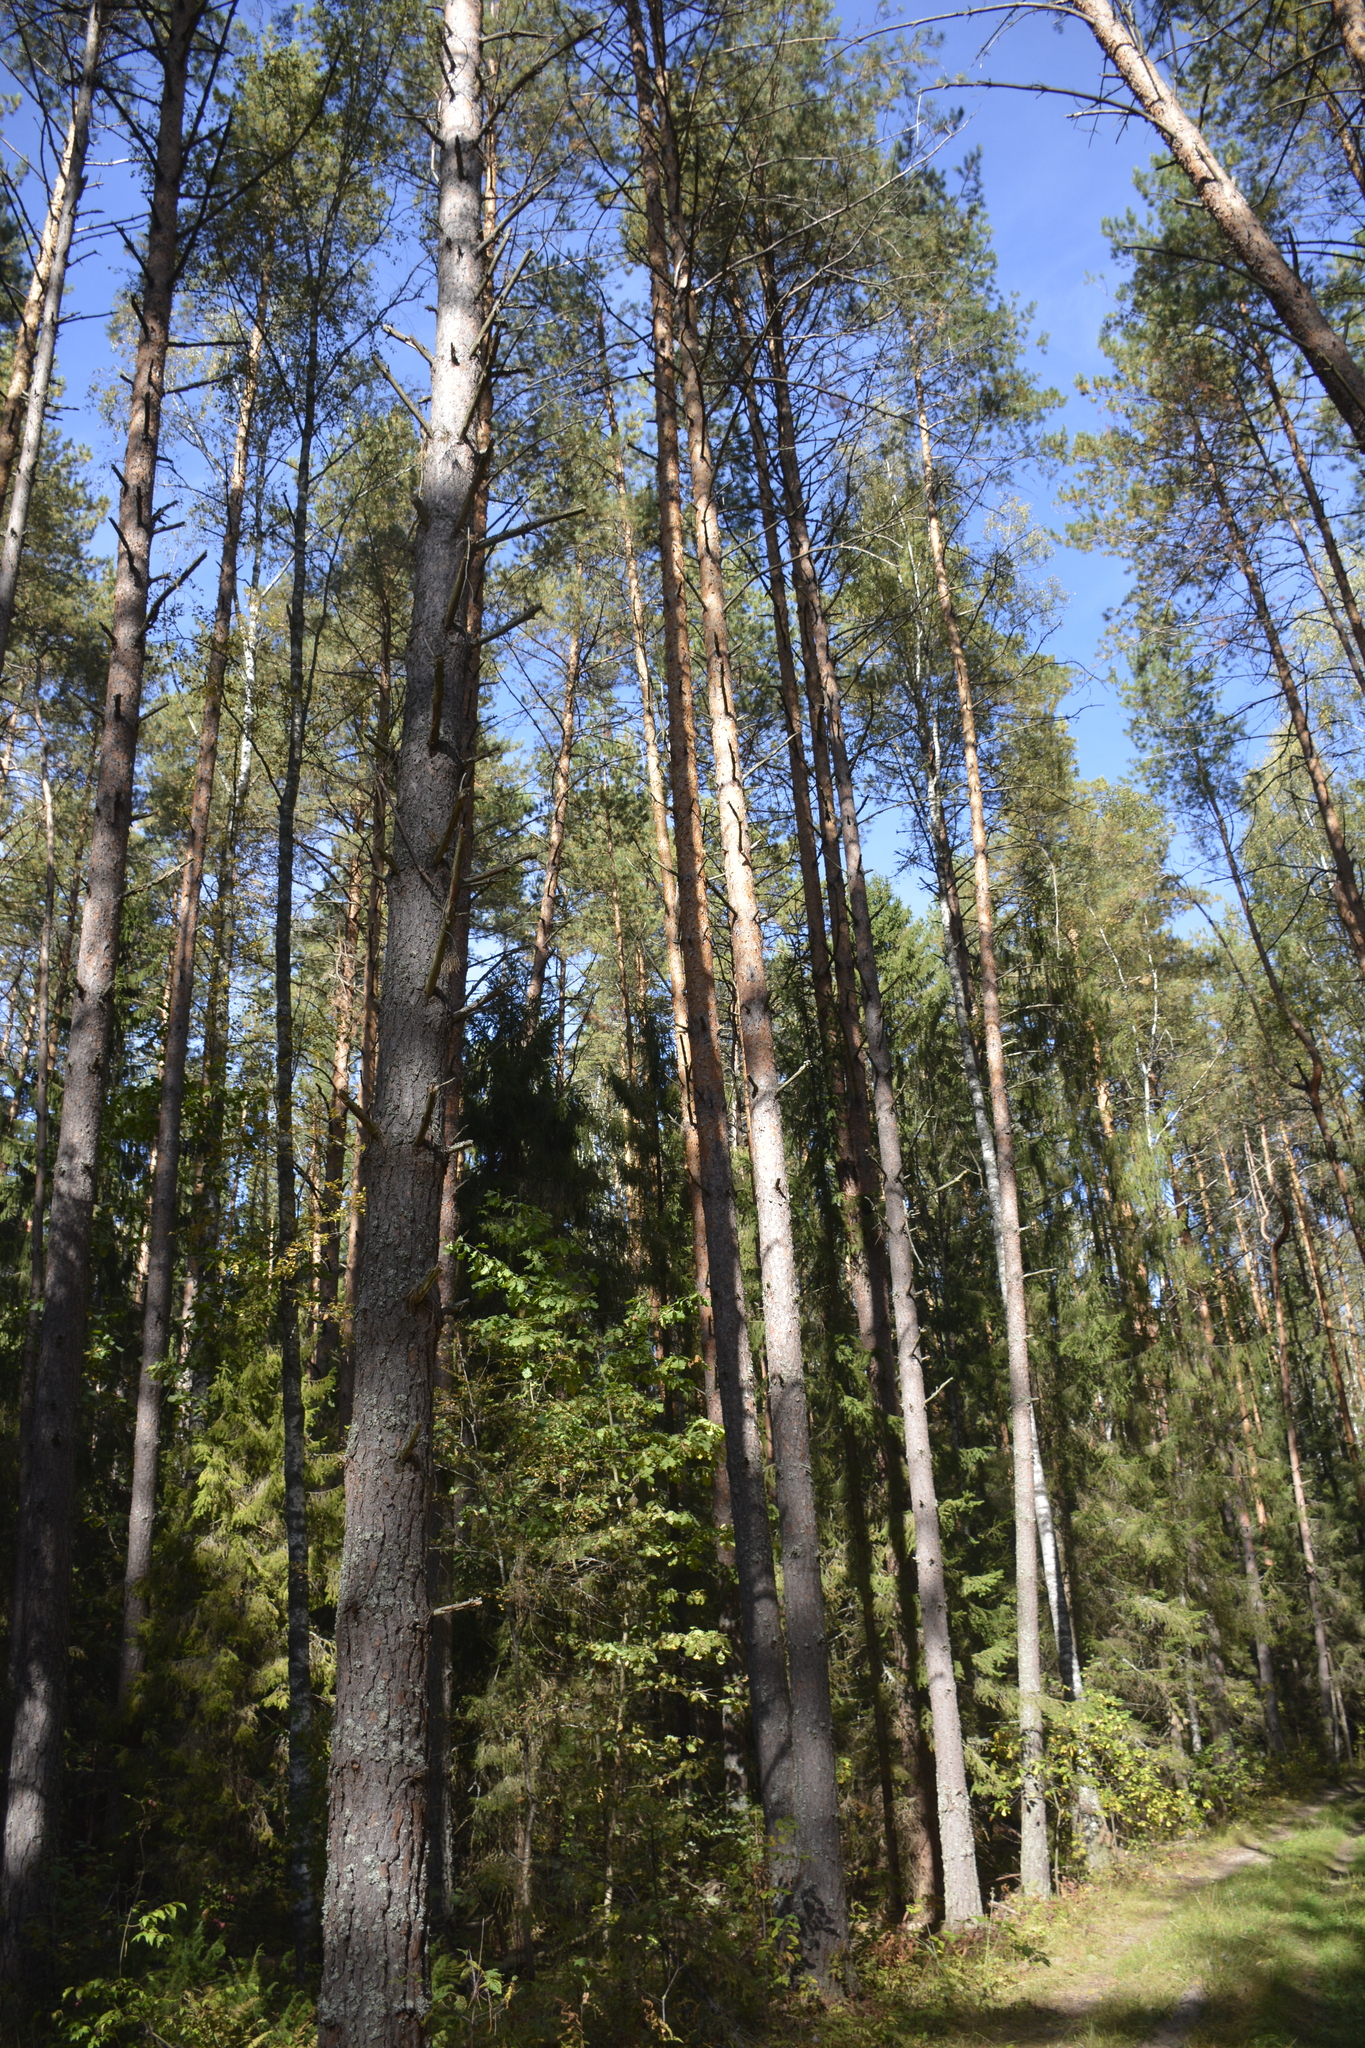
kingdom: Plantae
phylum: Tracheophyta
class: Pinopsida
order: Pinales
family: Pinaceae
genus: Pinus
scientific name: Pinus sylvestris
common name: Scots pine
